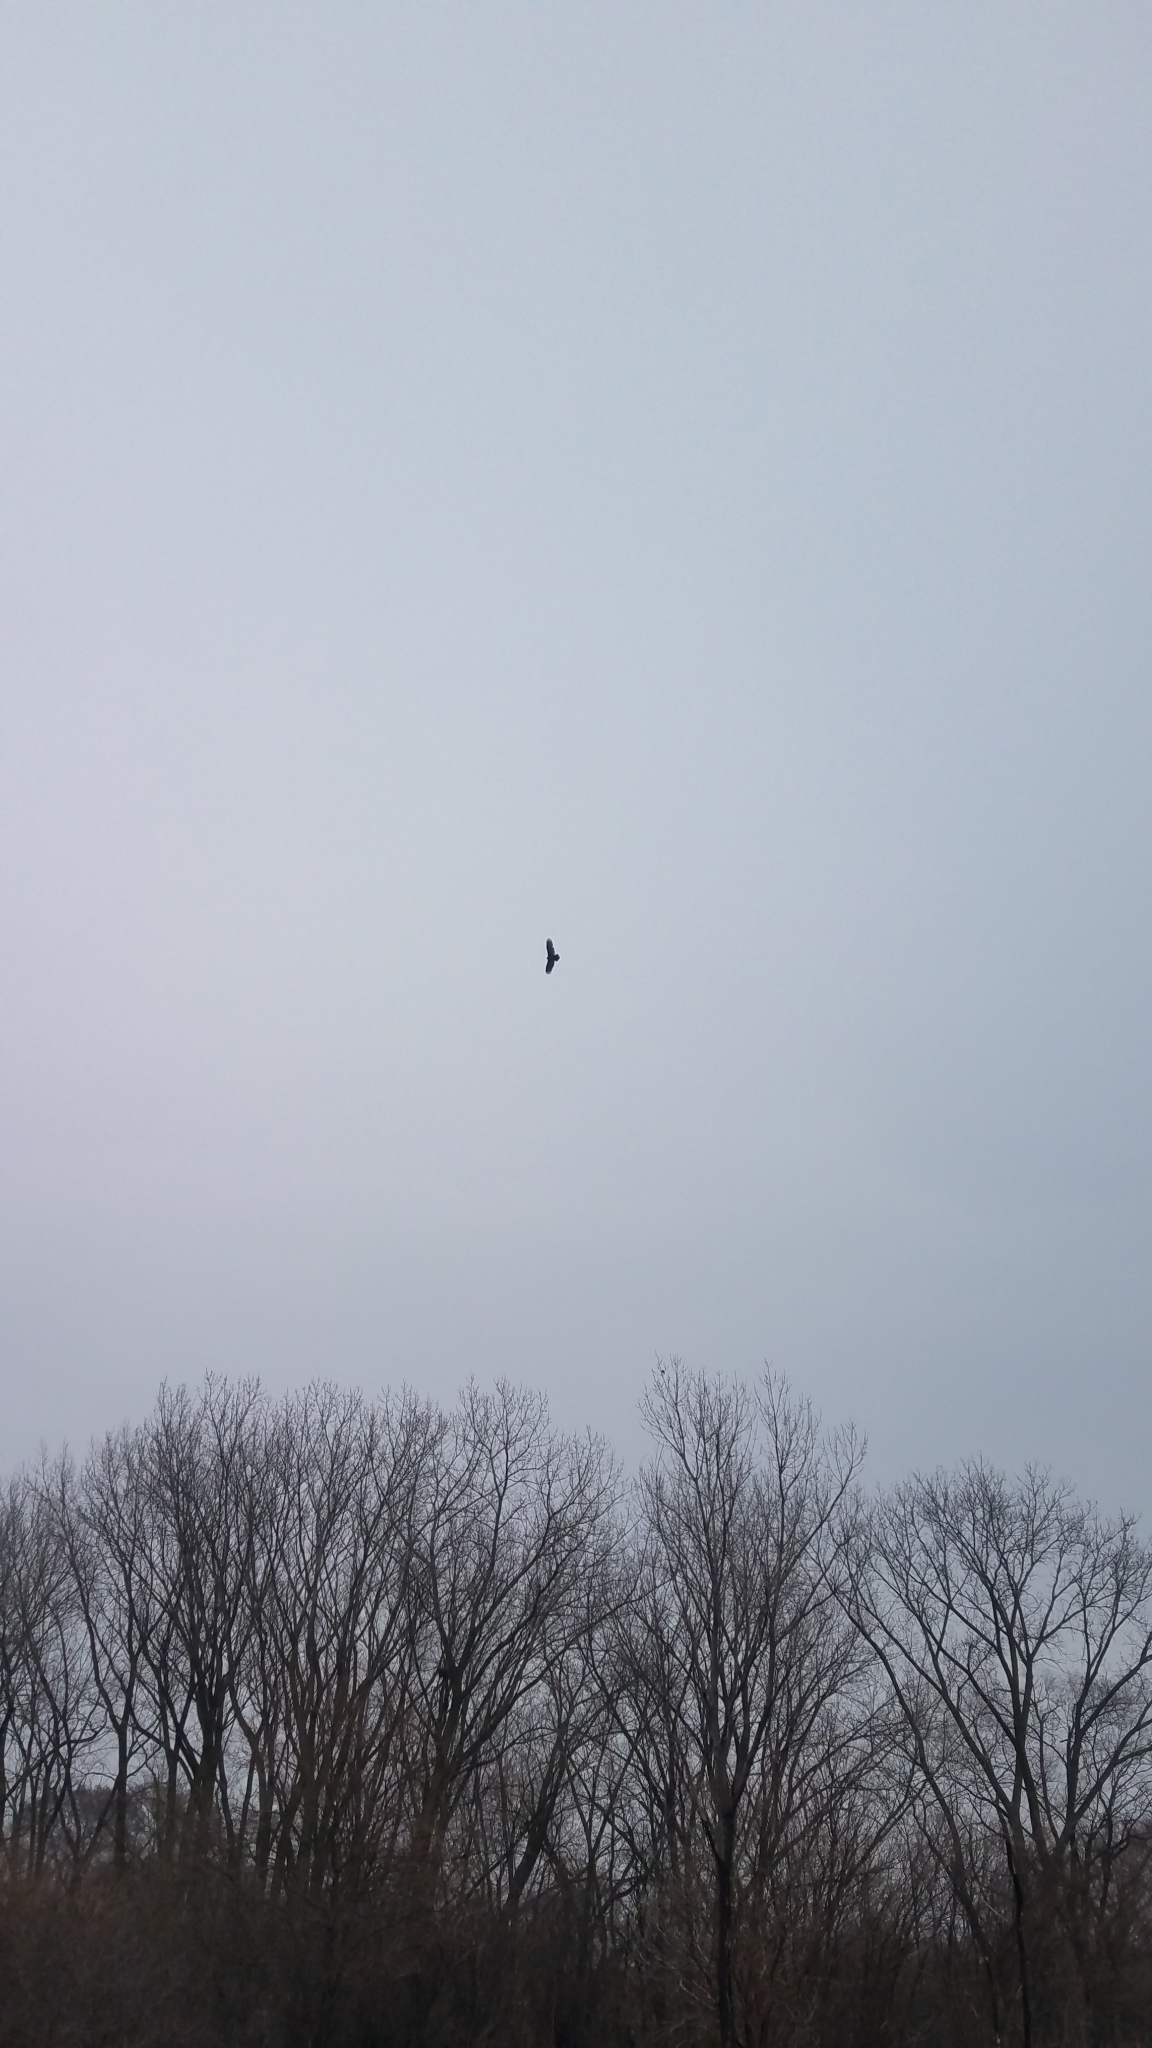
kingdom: Animalia
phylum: Chordata
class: Aves
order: Accipitriformes
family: Cathartidae
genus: Cathartes
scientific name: Cathartes aura
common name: Turkey vulture
